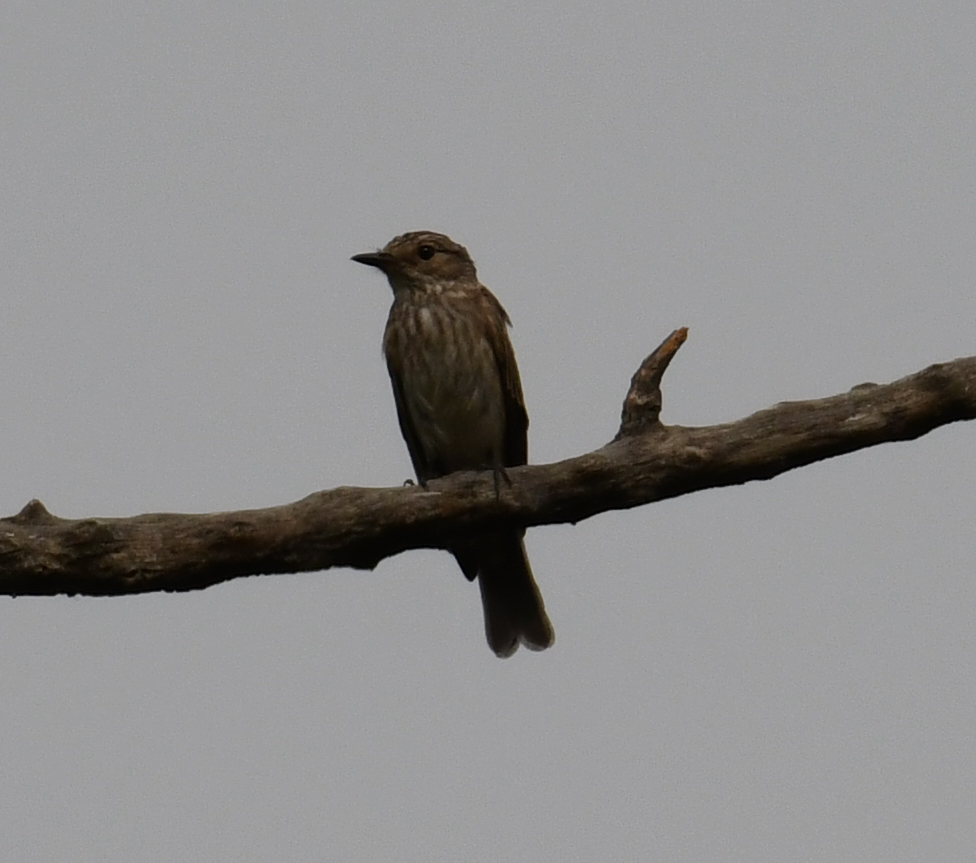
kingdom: Animalia
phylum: Chordata
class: Aves
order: Passeriformes
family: Muscicapidae
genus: Muscicapa
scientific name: Muscicapa striata
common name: Spotted flycatcher
